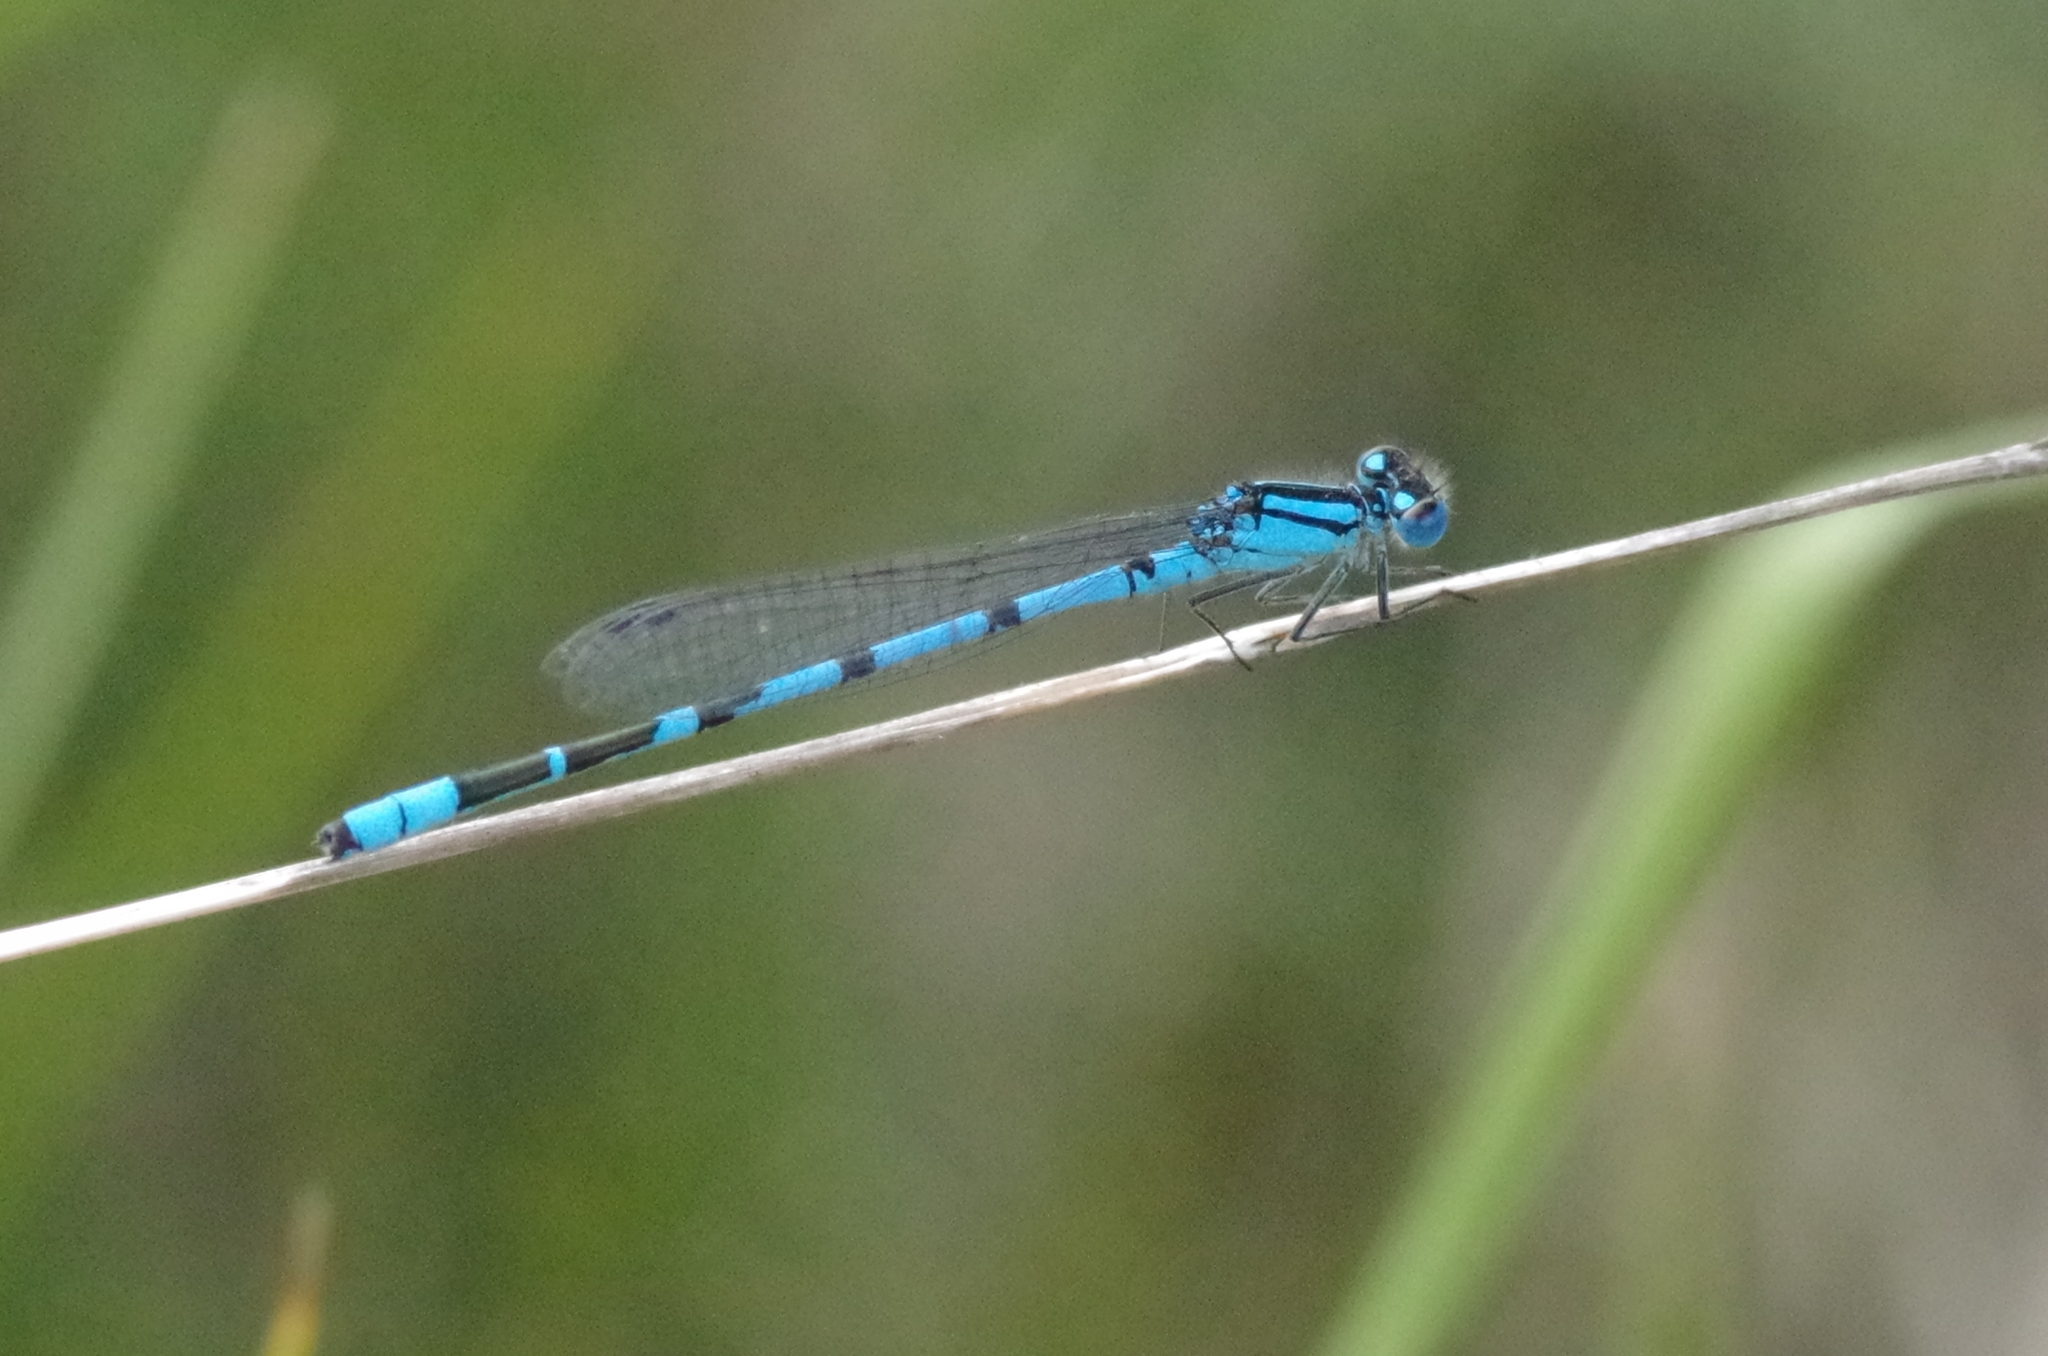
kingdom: Animalia
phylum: Arthropoda
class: Insecta
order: Odonata
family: Coenagrionidae
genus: Enallagma
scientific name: Enallagma cyathigerum
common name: Common blue damselfly
